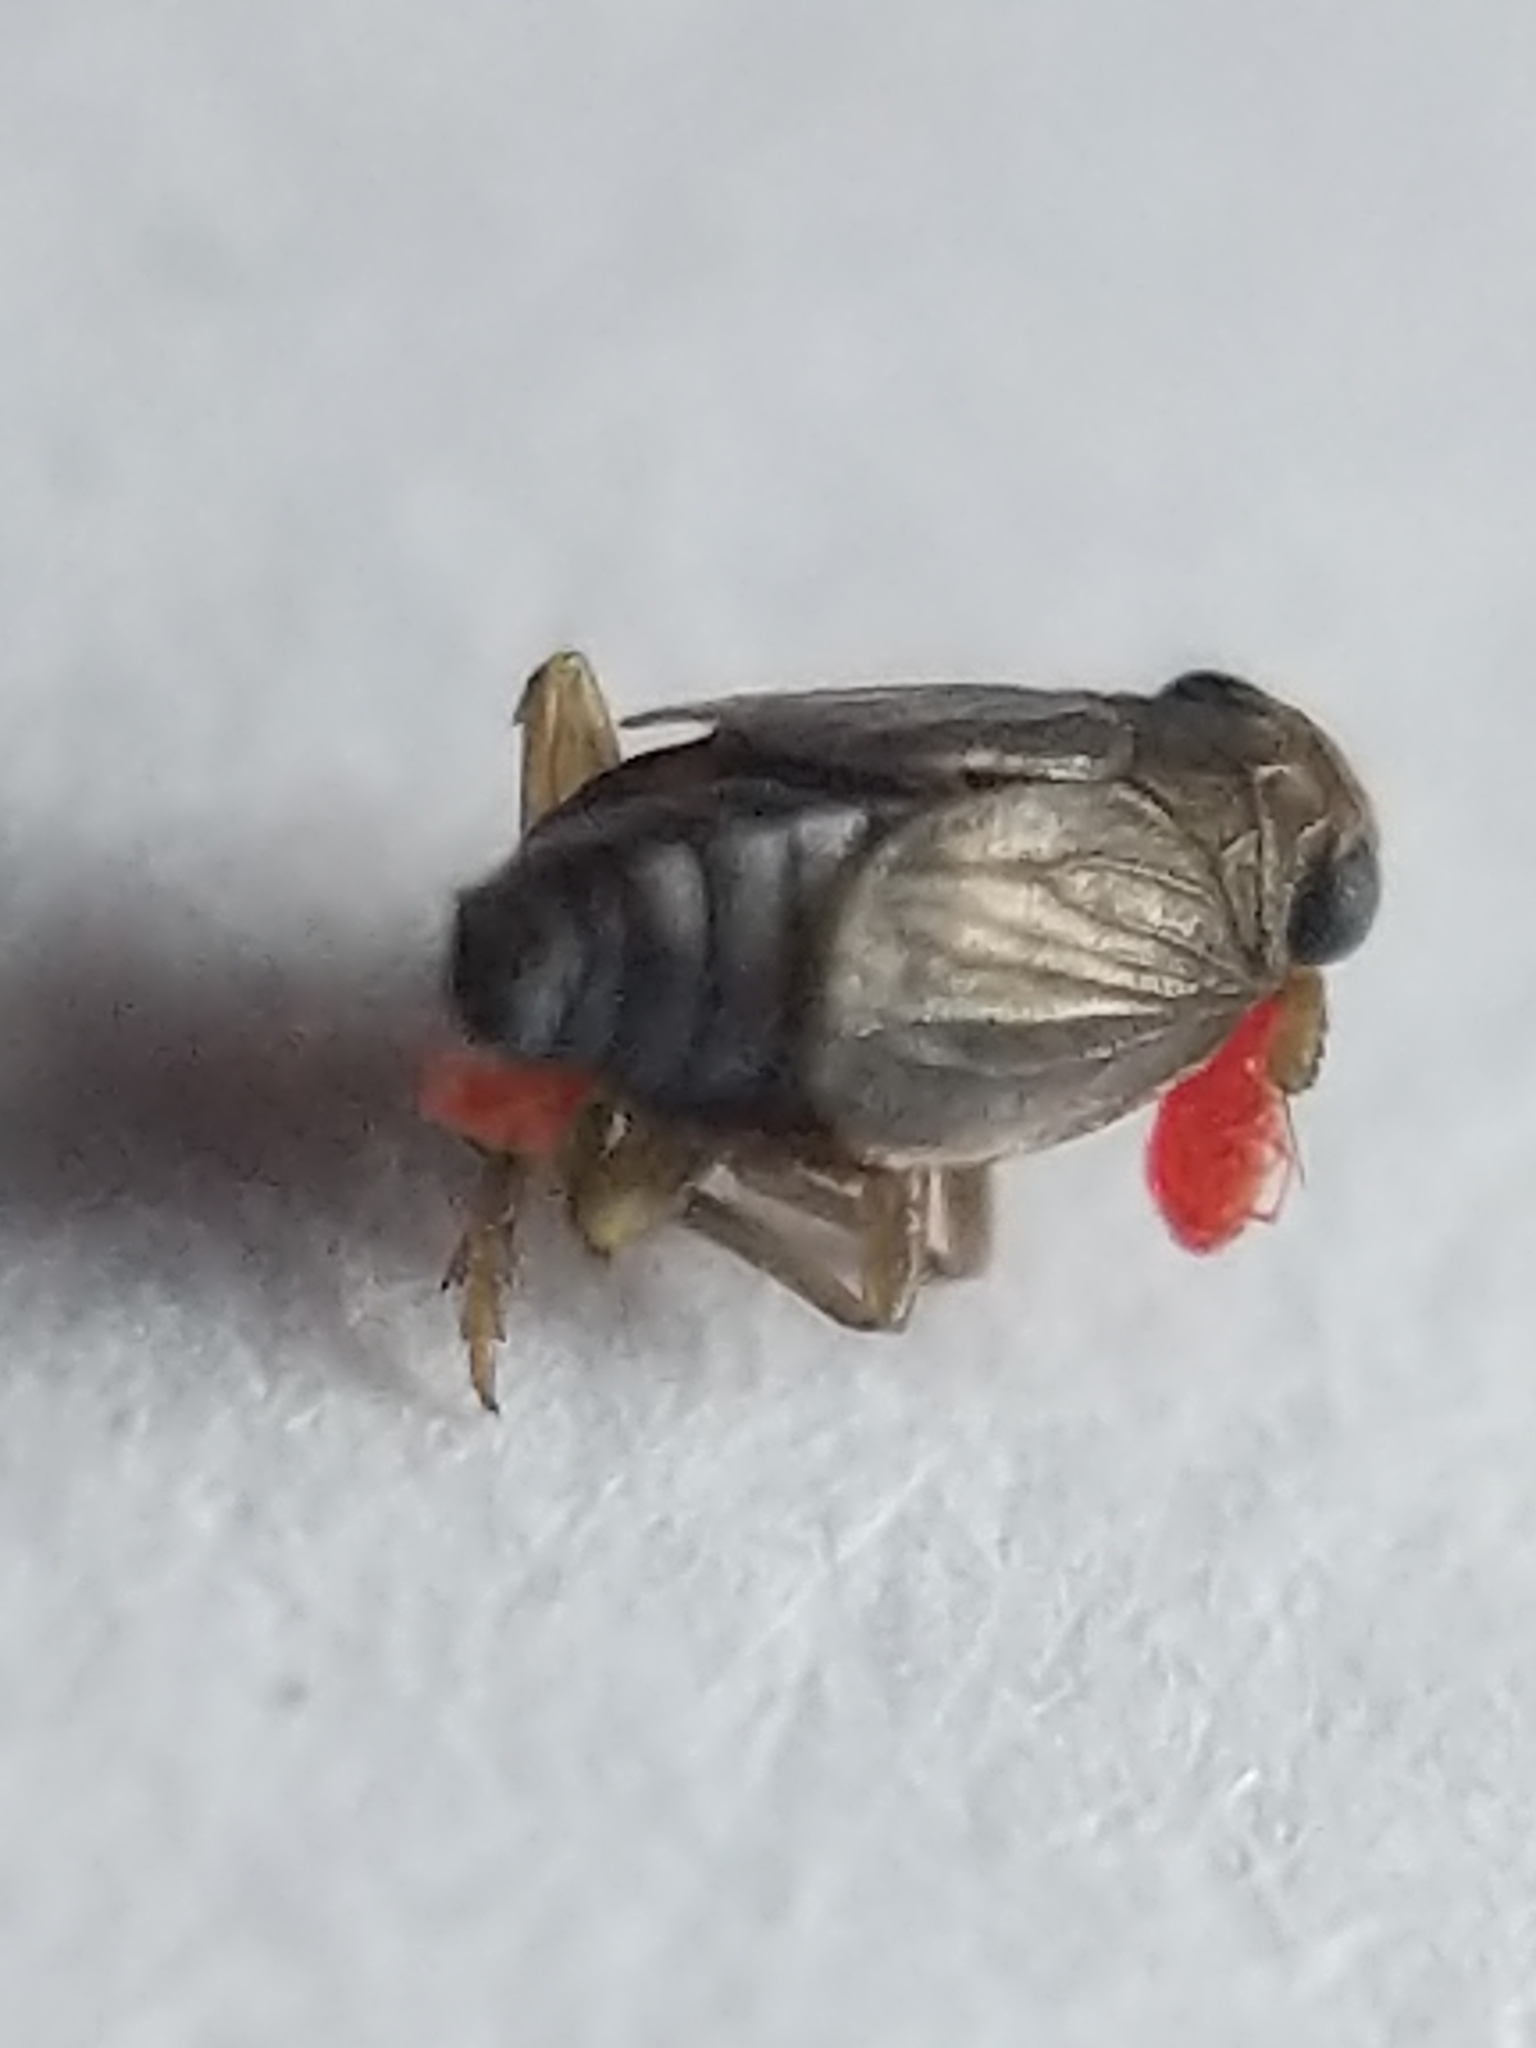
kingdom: Animalia
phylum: Arthropoda
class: Insecta
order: Hemiptera
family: Delphacidae
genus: Kosswigianella
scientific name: Kosswigianella lutulenta
